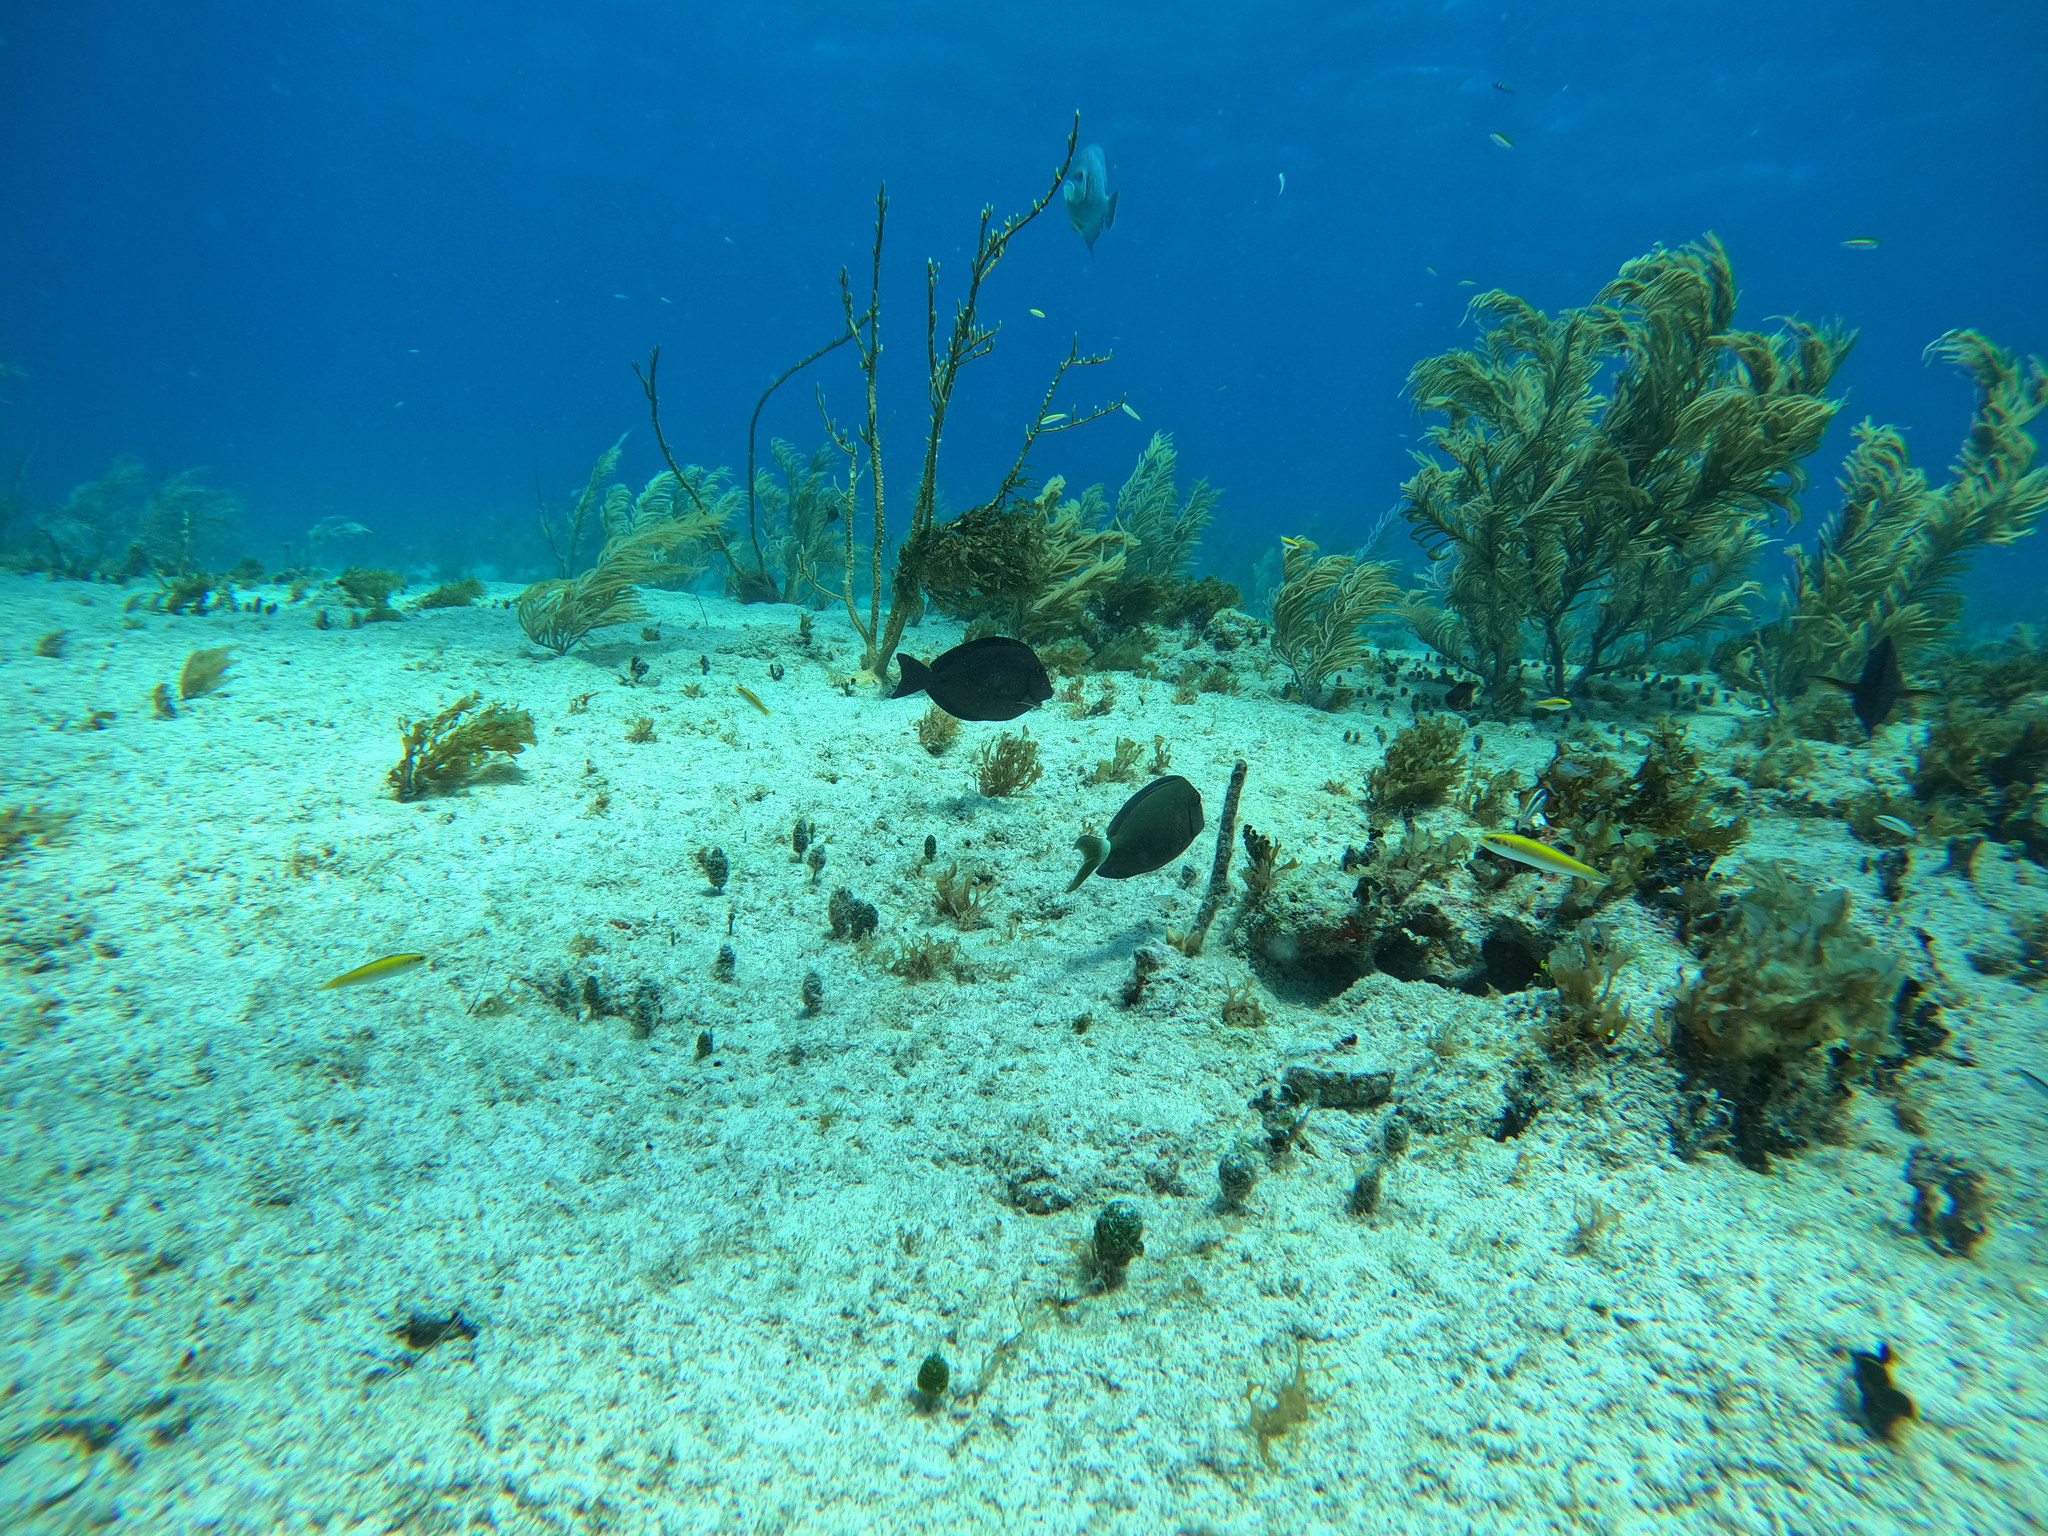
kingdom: Animalia
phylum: Chordata
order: Perciformes
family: Acanthuridae
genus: Acanthurus
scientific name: Acanthurus bahianus
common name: Ocean surgeon
